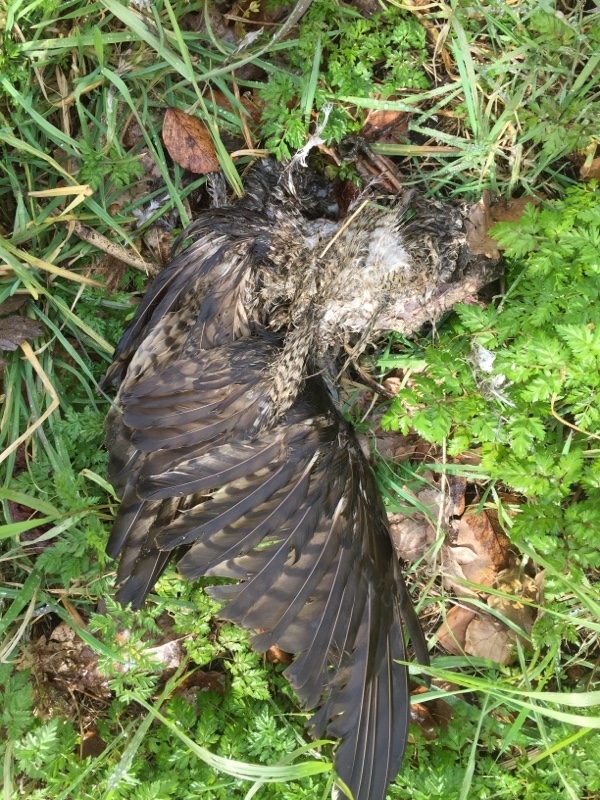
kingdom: Animalia
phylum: Chordata
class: Aves
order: Accipitriformes
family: Accipitridae
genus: Accipiter
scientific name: Accipiter nisus
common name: Eurasian sparrowhawk
